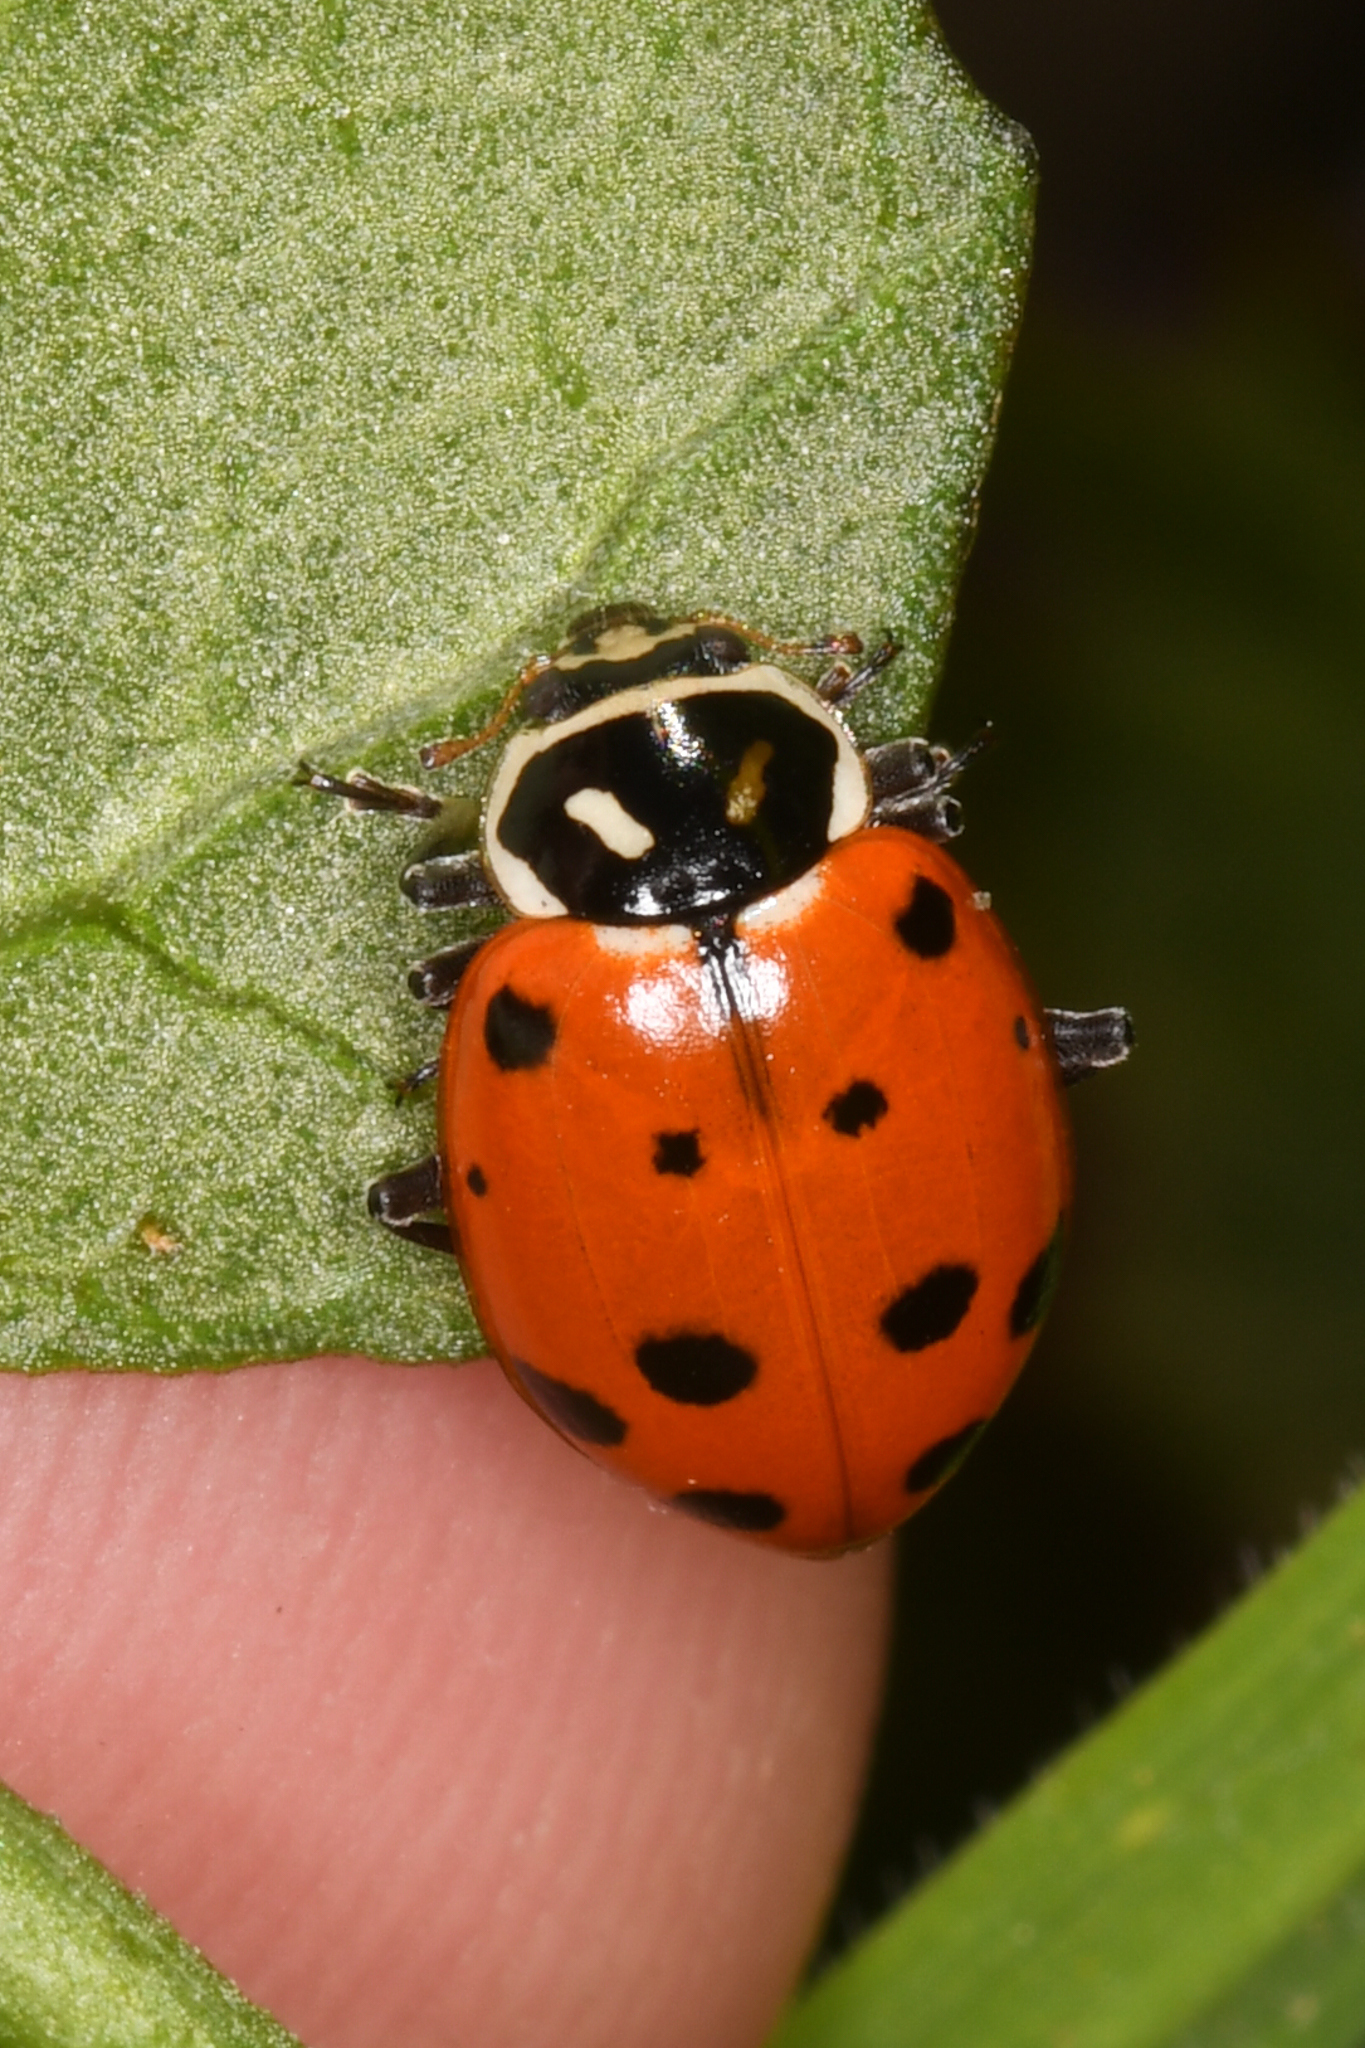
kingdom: Animalia
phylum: Arthropoda
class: Insecta
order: Coleoptera
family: Coccinellidae
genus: Hippodamia
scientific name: Hippodamia convergens
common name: Convergent lady beetle
